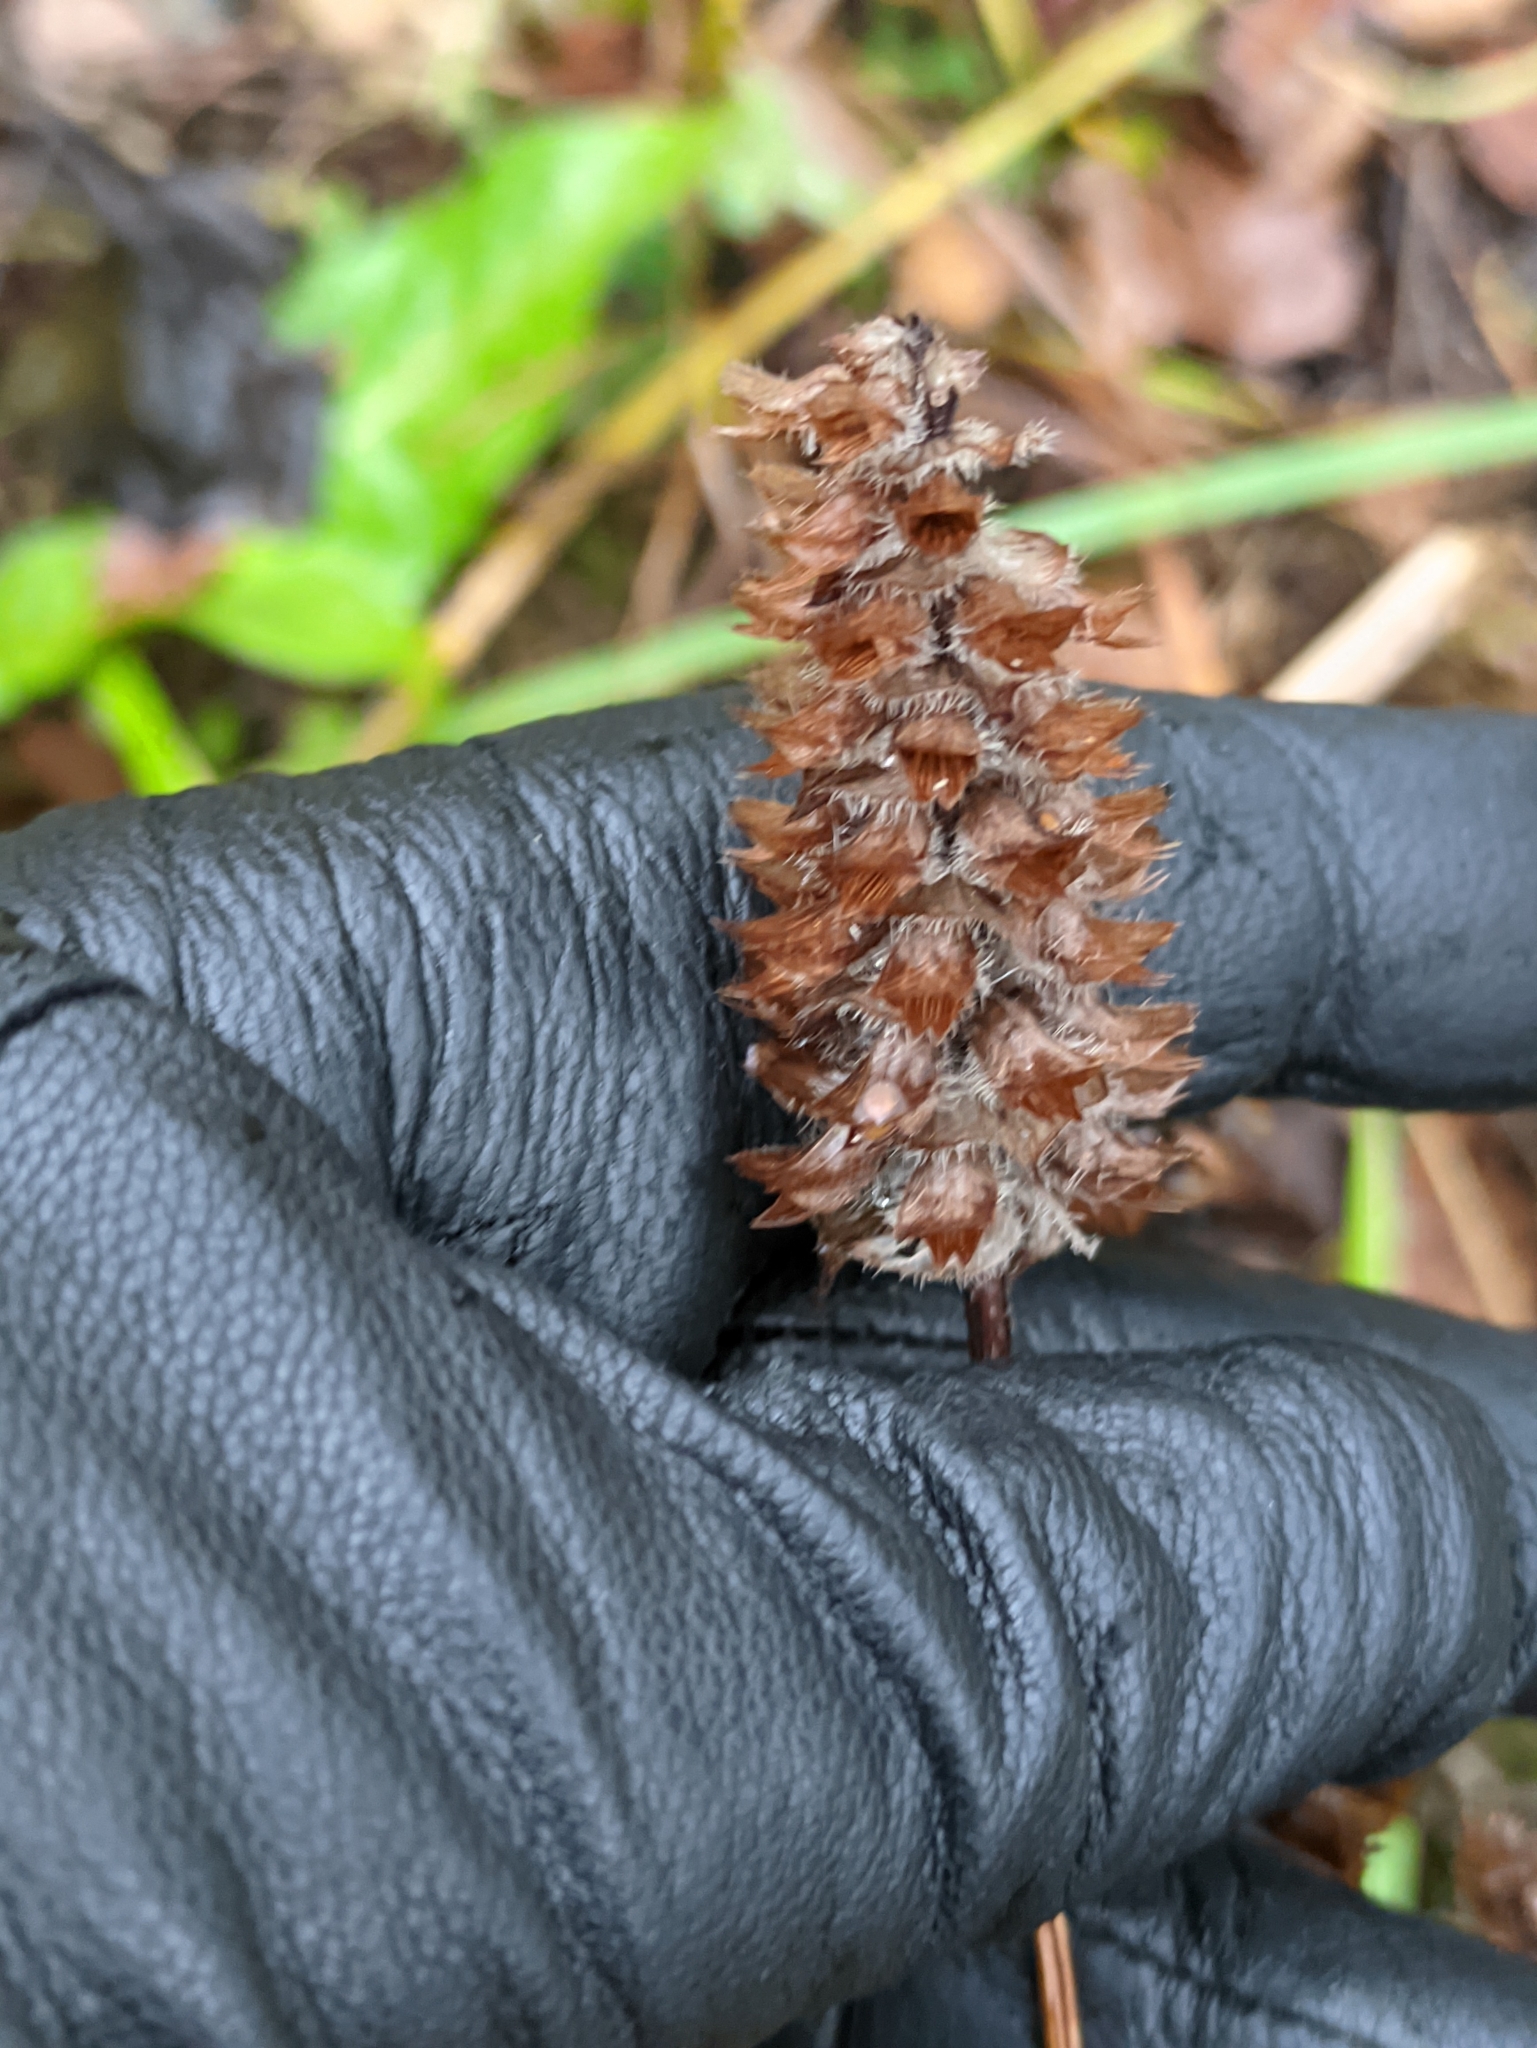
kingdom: Plantae
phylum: Tracheophyta
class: Magnoliopsida
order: Lamiales
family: Lamiaceae
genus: Prunella
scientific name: Prunella vulgaris
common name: Heal-all
